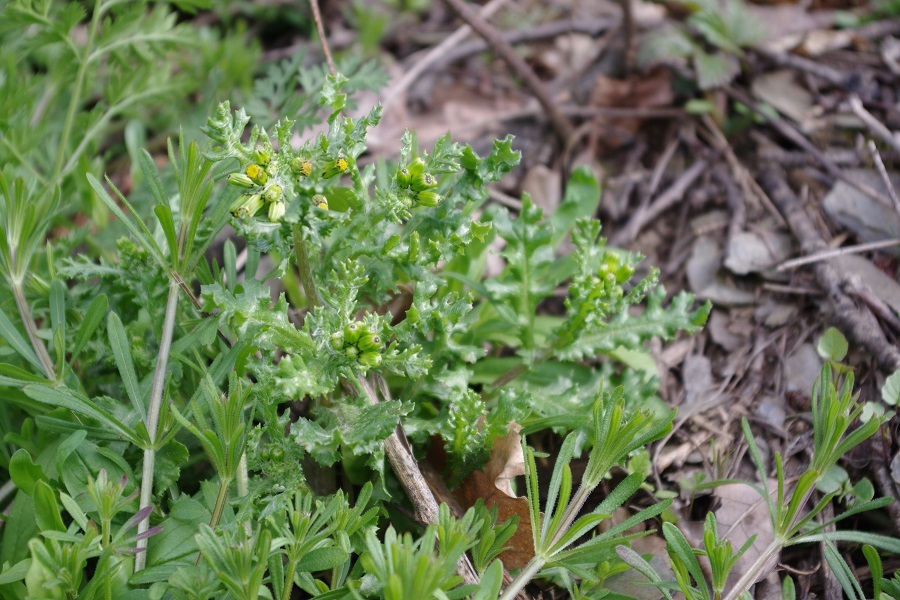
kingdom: Plantae
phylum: Tracheophyta
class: Magnoliopsida
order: Asterales
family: Asteraceae
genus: Senecio
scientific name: Senecio vulgaris
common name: Old-man-in-the-spring
